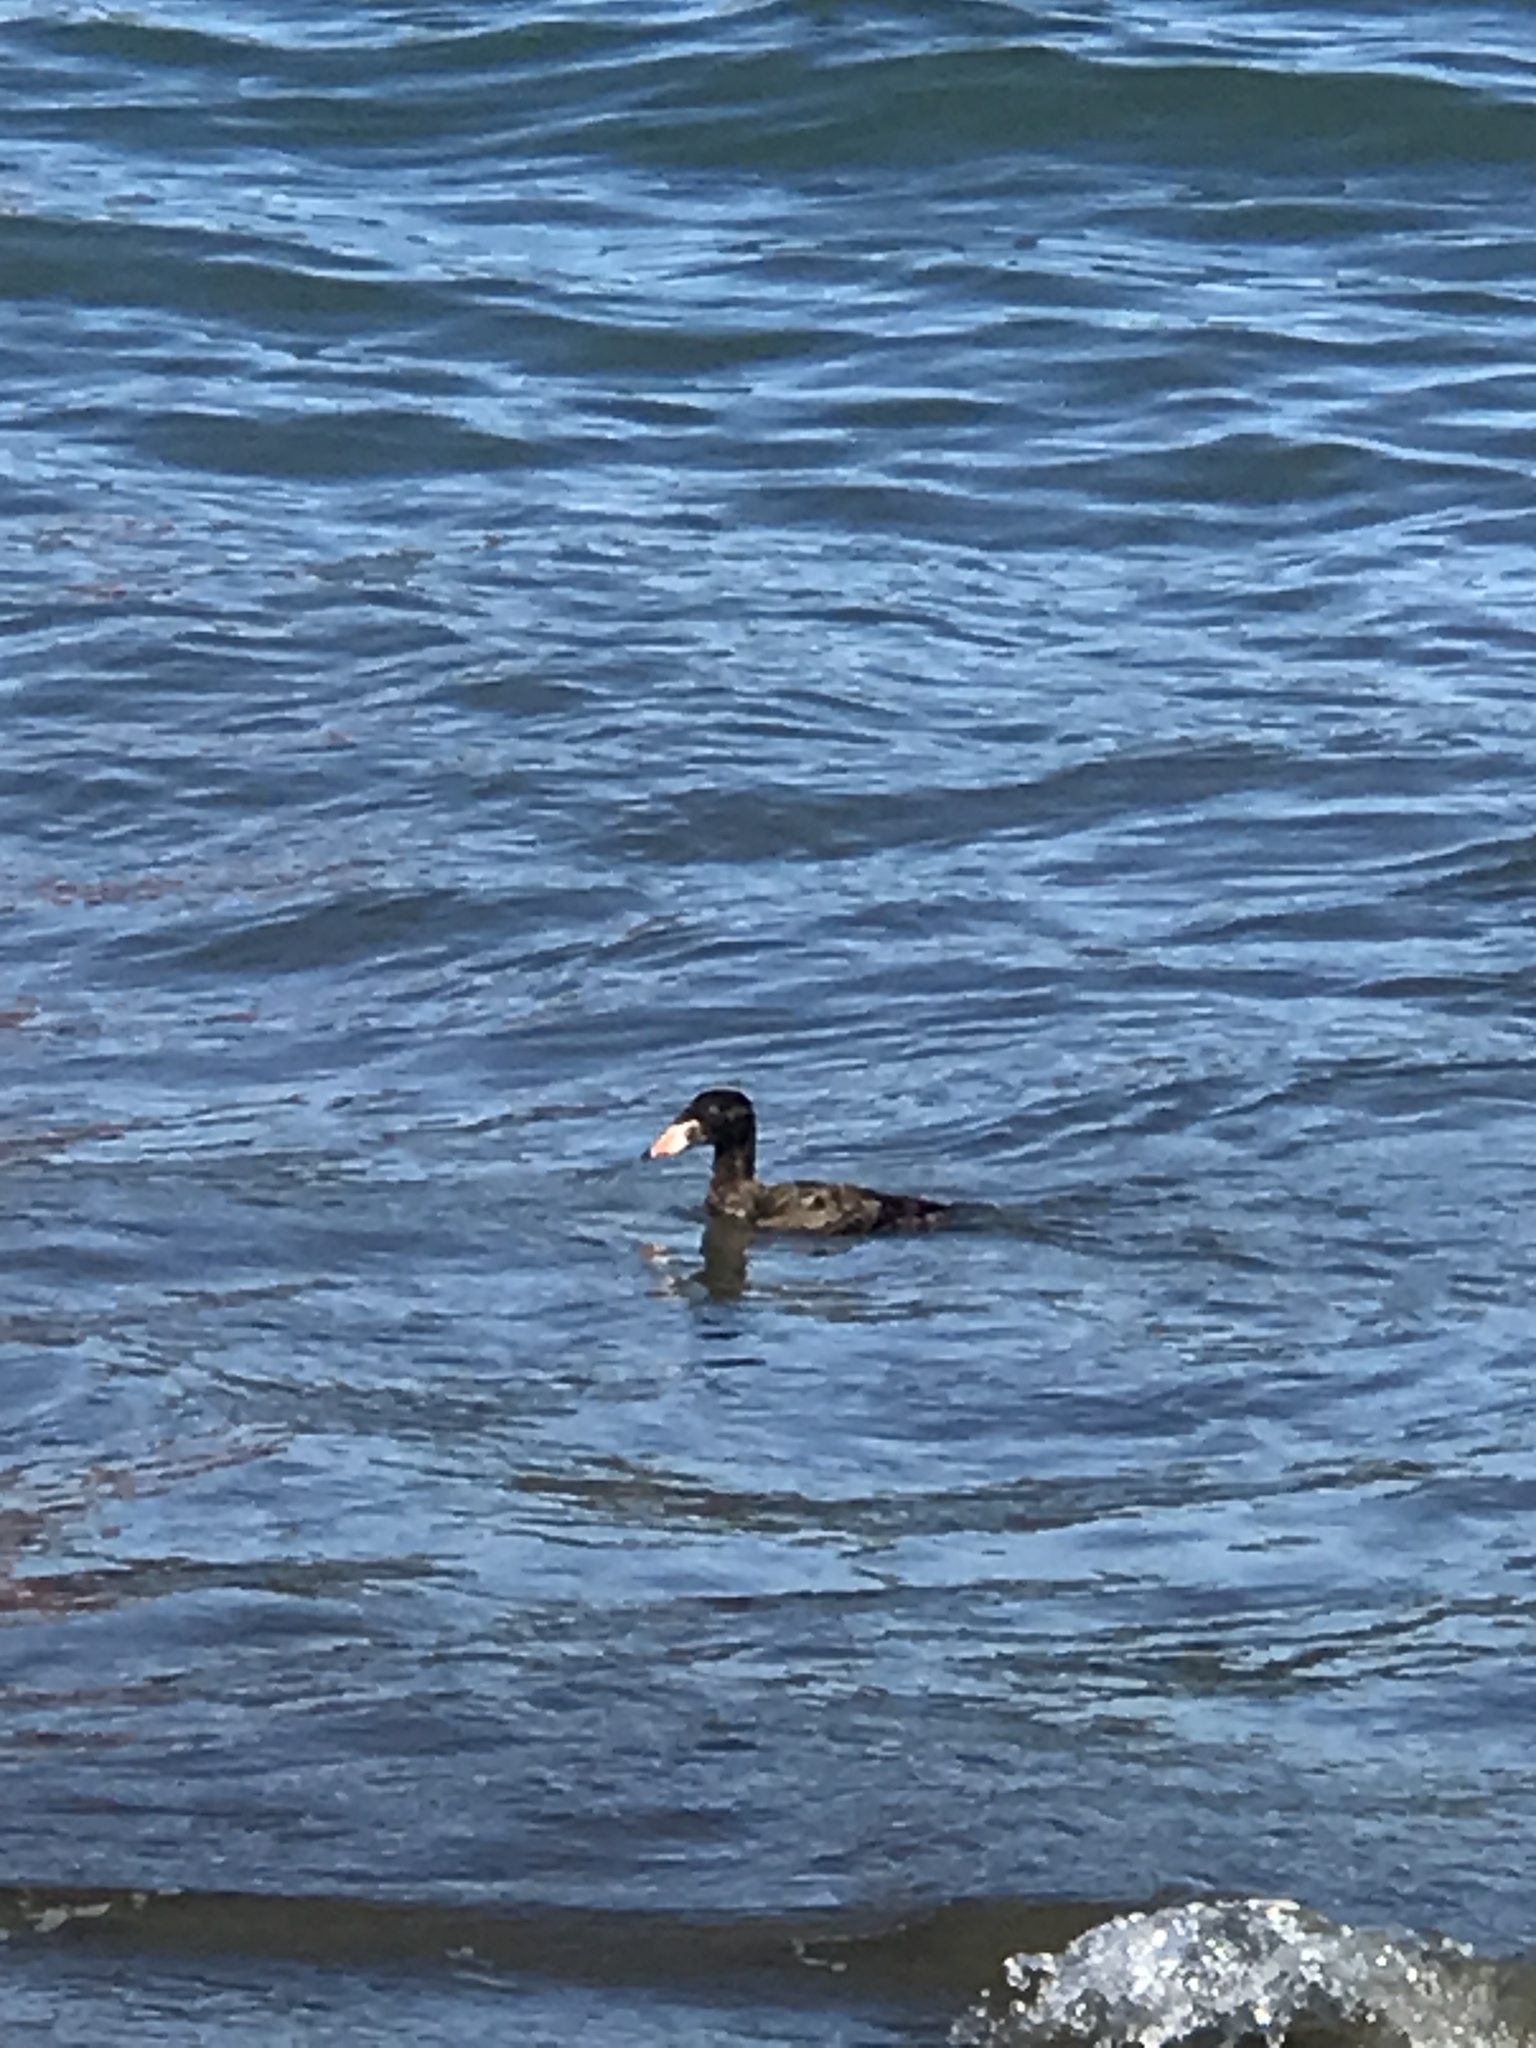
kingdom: Animalia
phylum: Chordata
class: Aves
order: Anseriformes
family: Anatidae
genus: Melanitta
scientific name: Melanitta perspicillata
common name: Surf scoter
